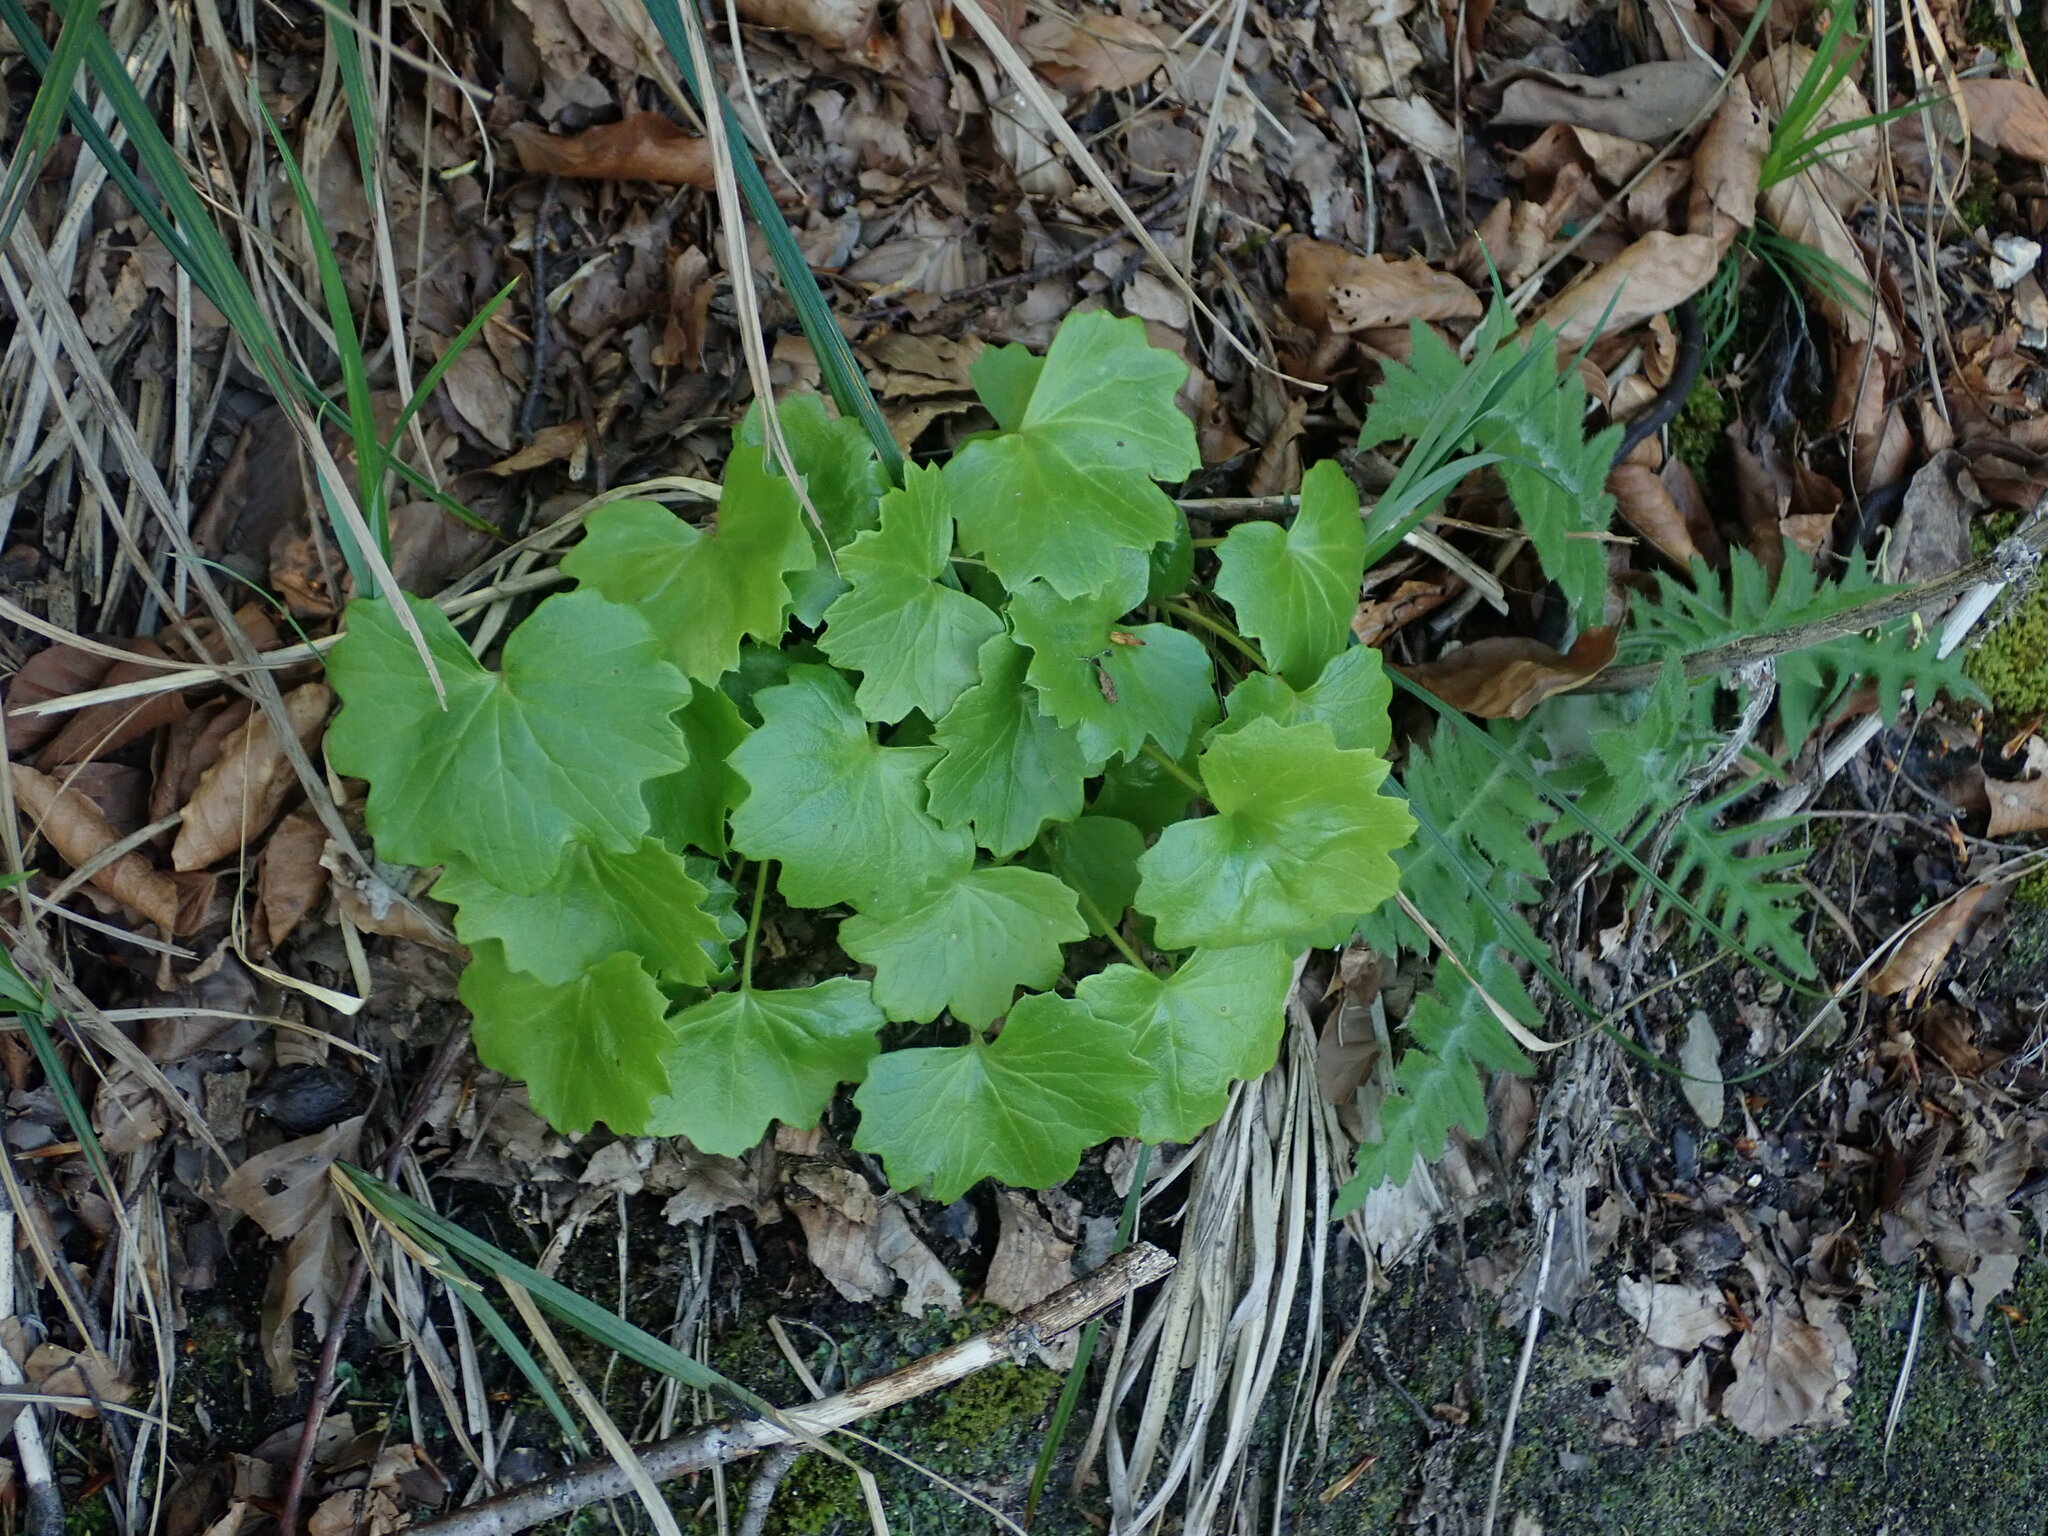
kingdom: Plantae
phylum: Tracheophyta
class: Magnoliopsida
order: Saxifragales
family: Saxifragaceae
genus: Saxifraga
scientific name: Saxifraga rotundifolia
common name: Round-leaved saxifrage
